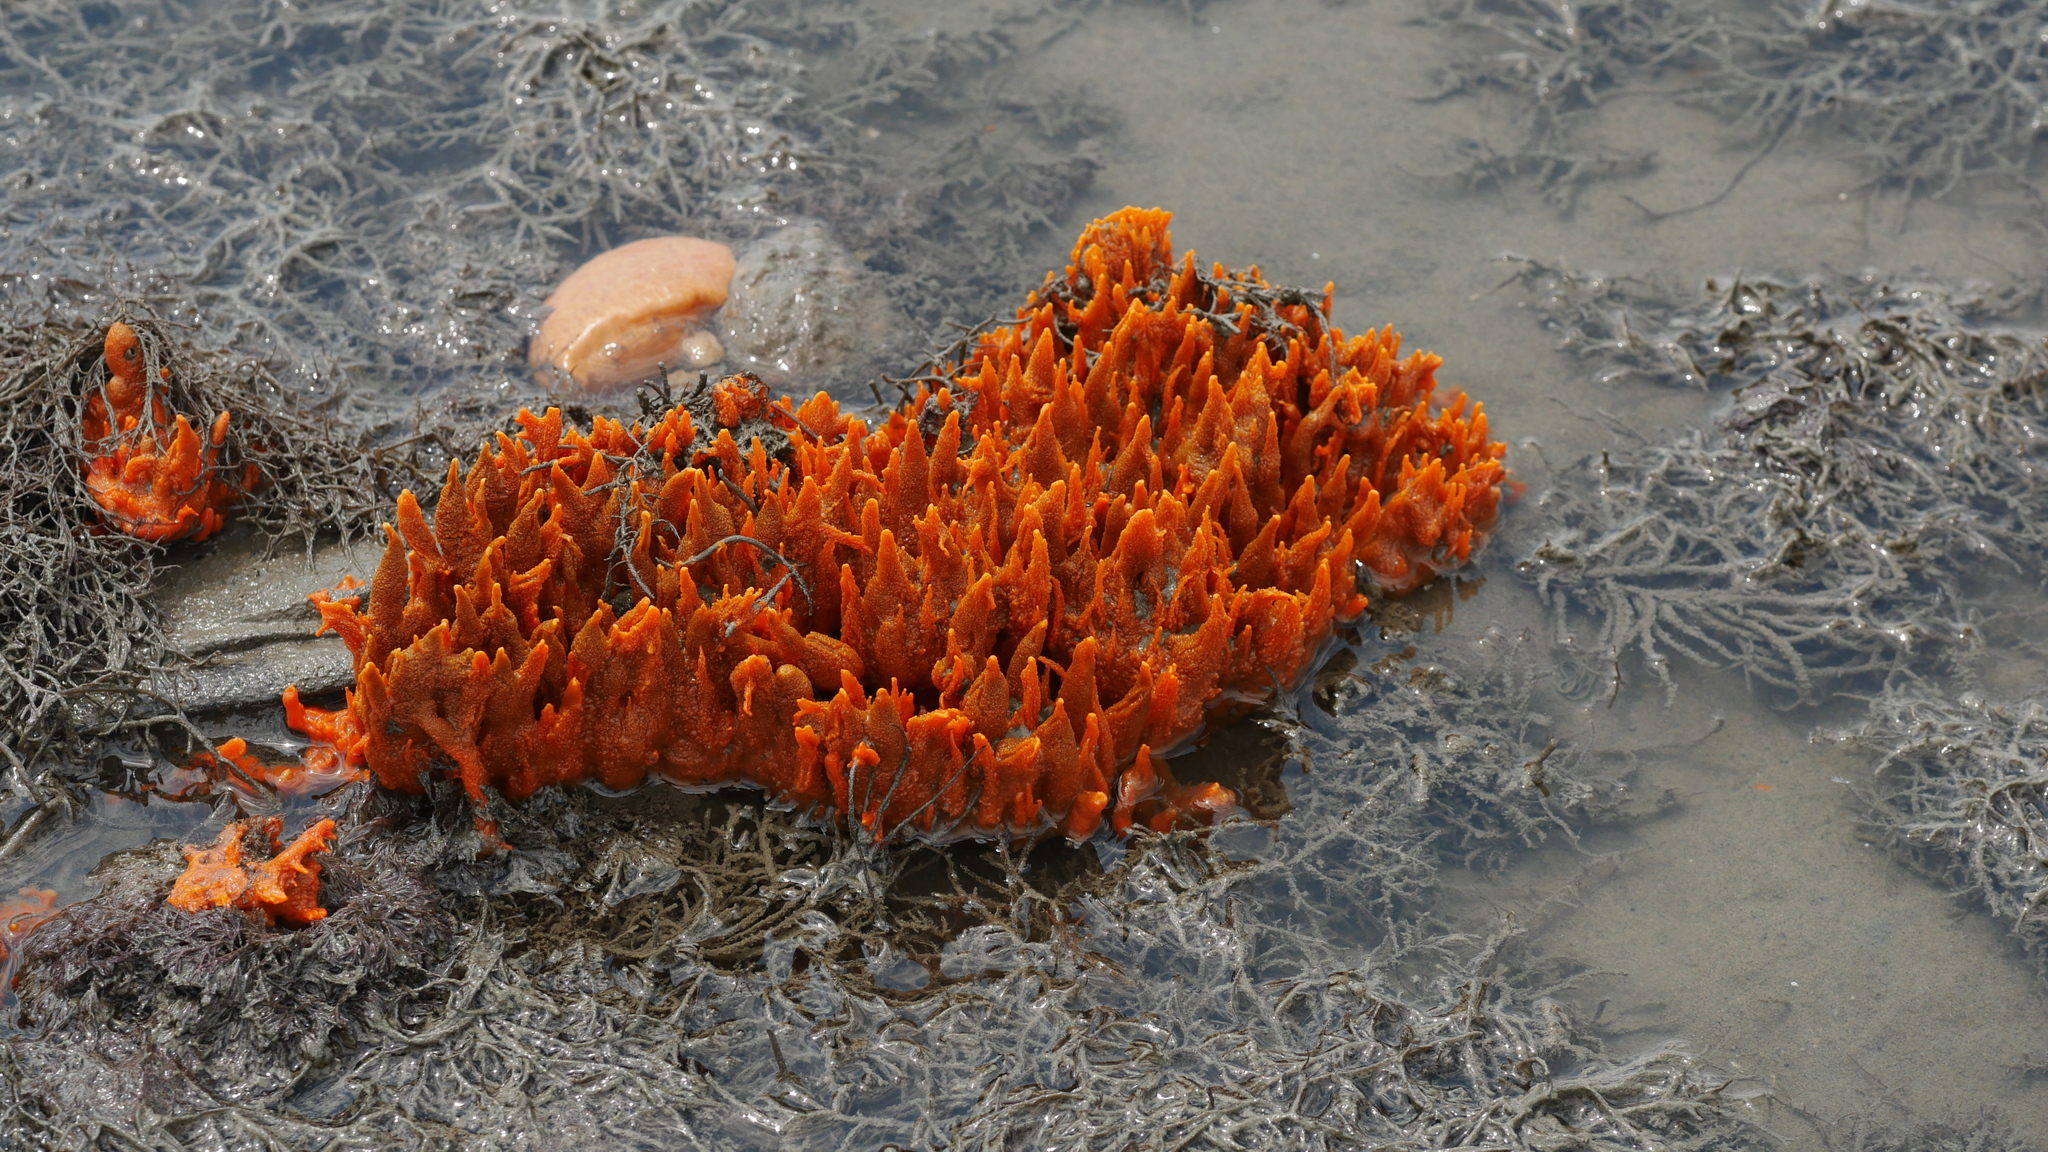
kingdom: Animalia
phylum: Porifera
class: Demospongiae
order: Suberitida
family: Halichondriidae
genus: Hymeniacidon
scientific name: Hymeniacidon heliophila
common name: Diurnal horny sponge
